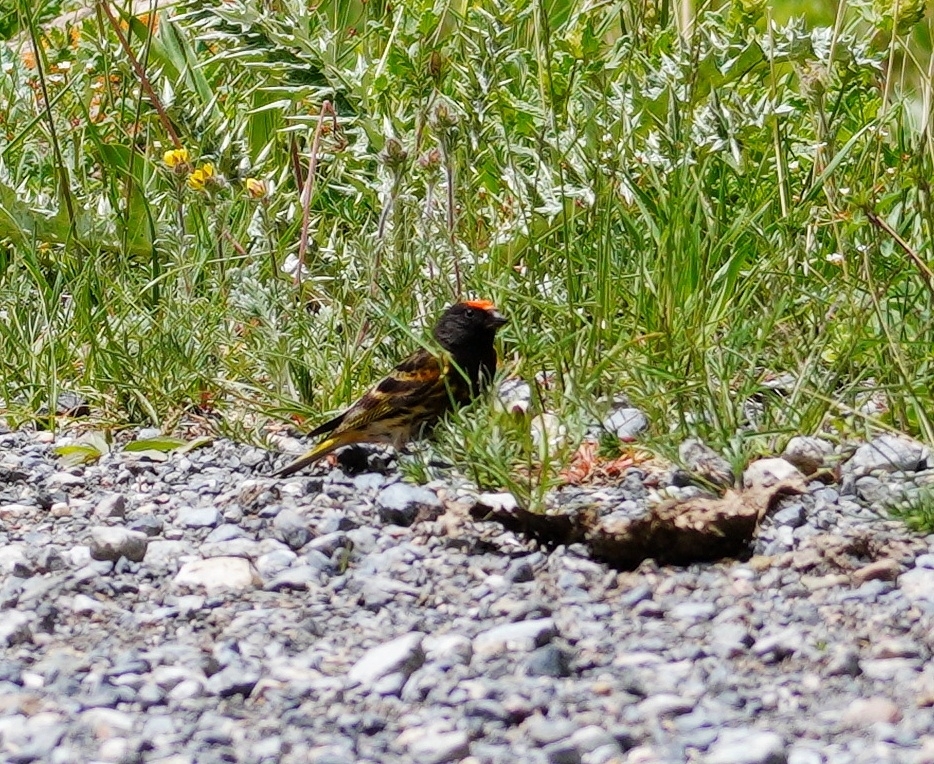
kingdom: Animalia
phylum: Chordata
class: Aves
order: Passeriformes
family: Fringillidae
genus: Serinus
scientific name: Serinus pusillus
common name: Red-fronted serin
